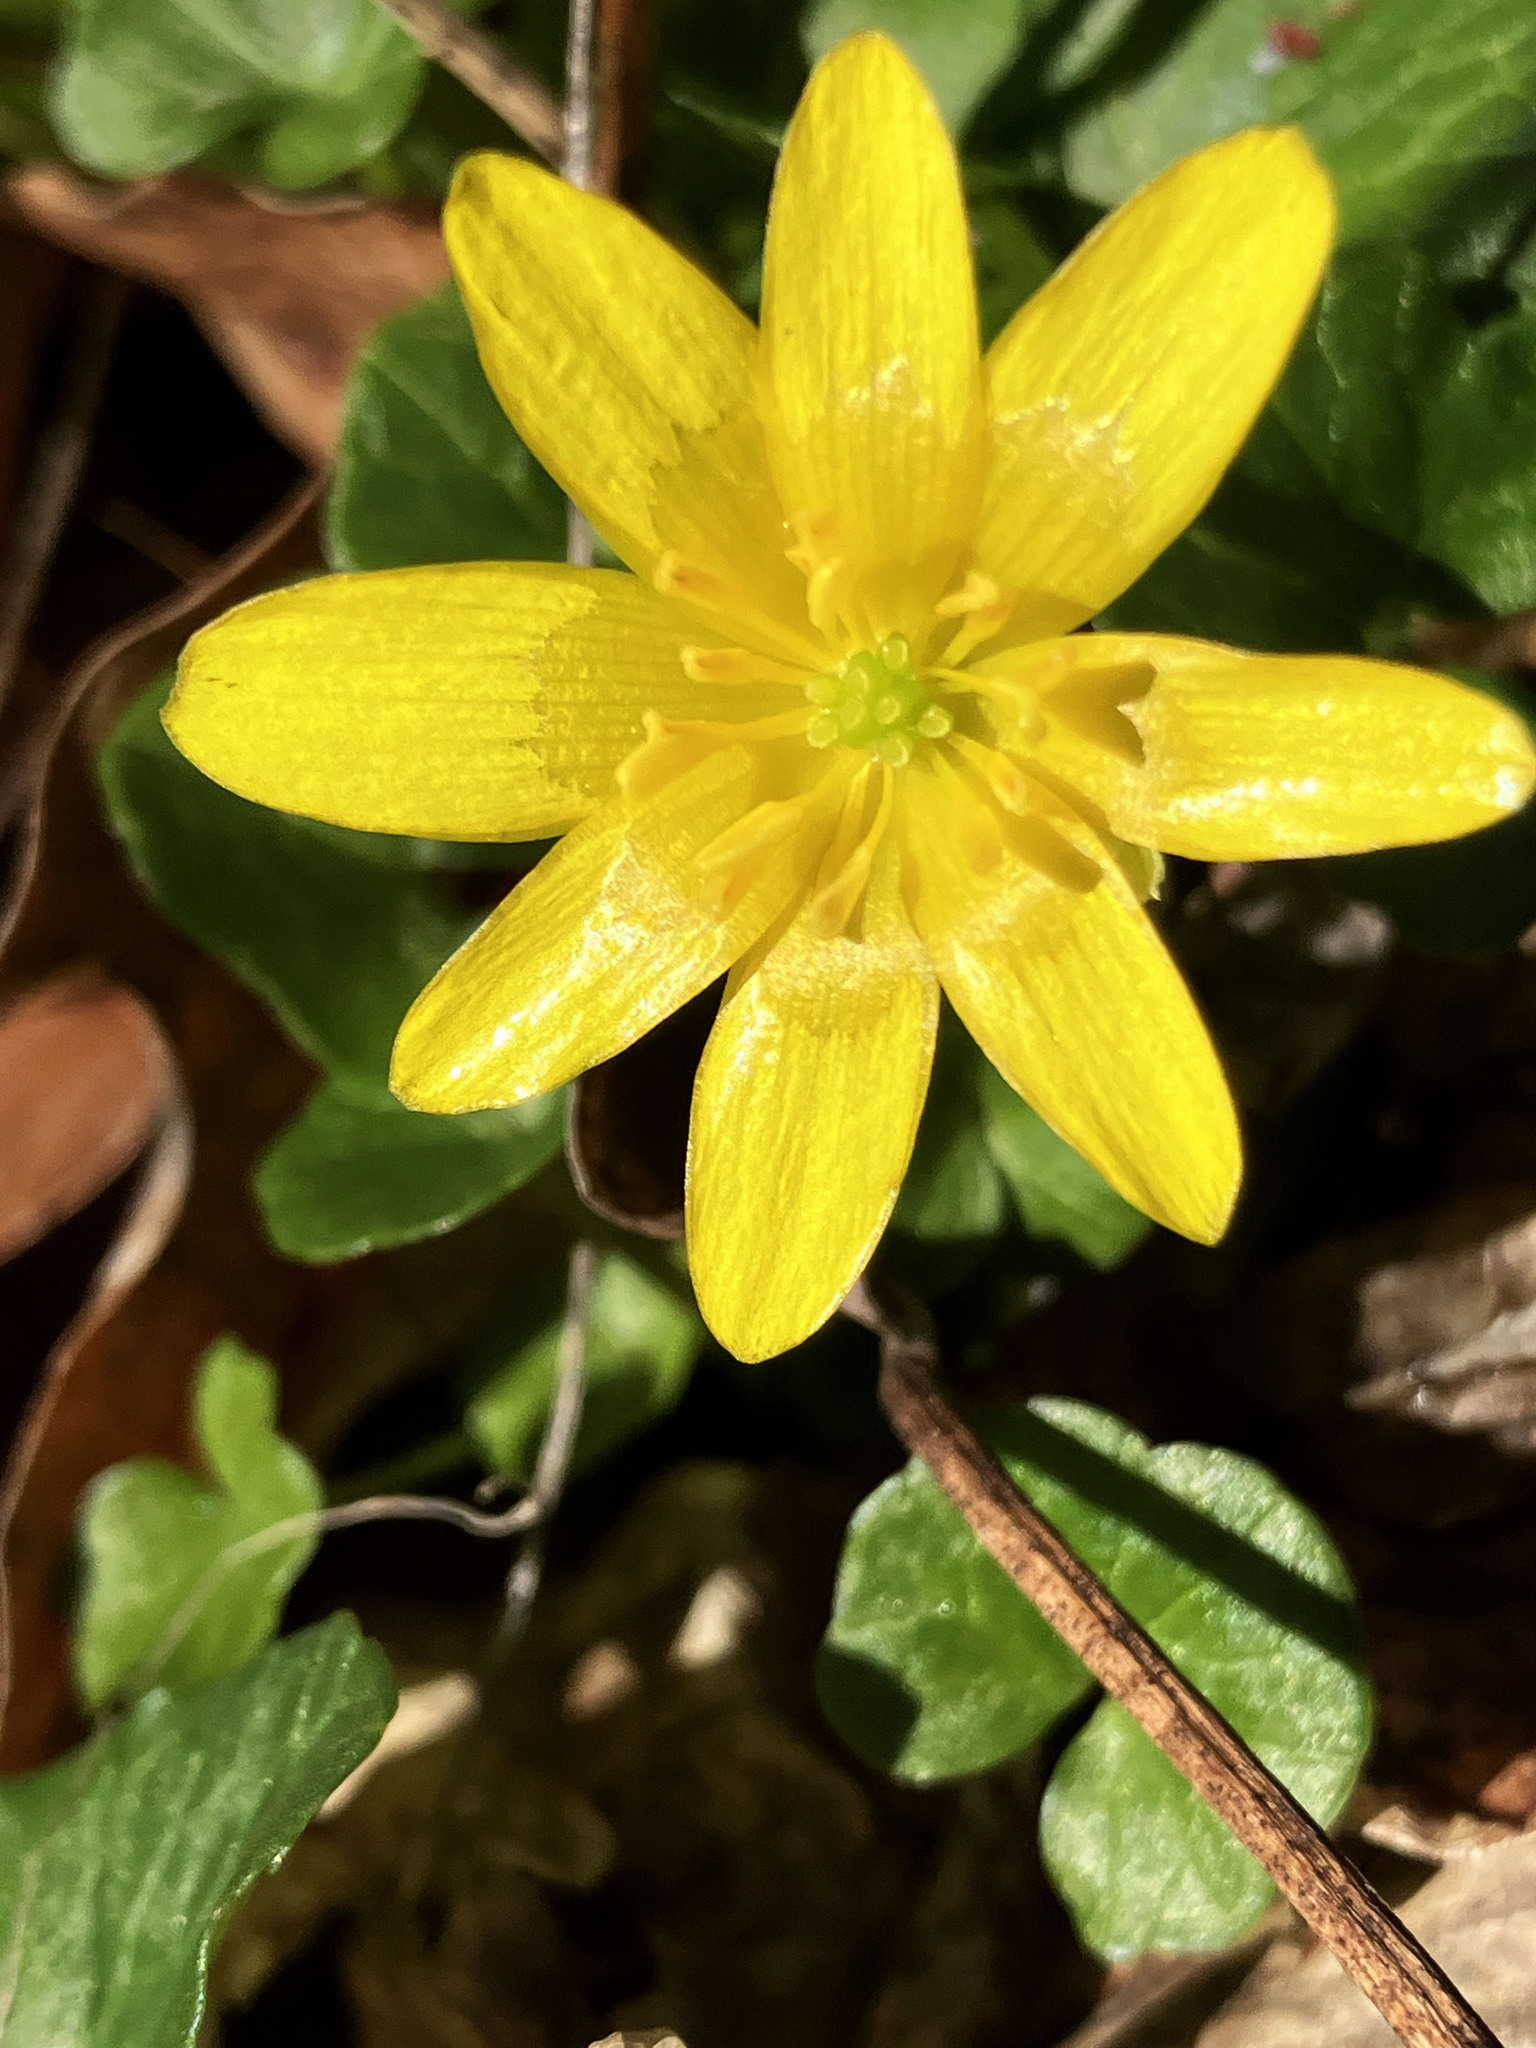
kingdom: Plantae
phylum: Tracheophyta
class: Magnoliopsida
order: Ranunculales
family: Ranunculaceae
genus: Ficaria
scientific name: Ficaria verna
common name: Lesser celandine
